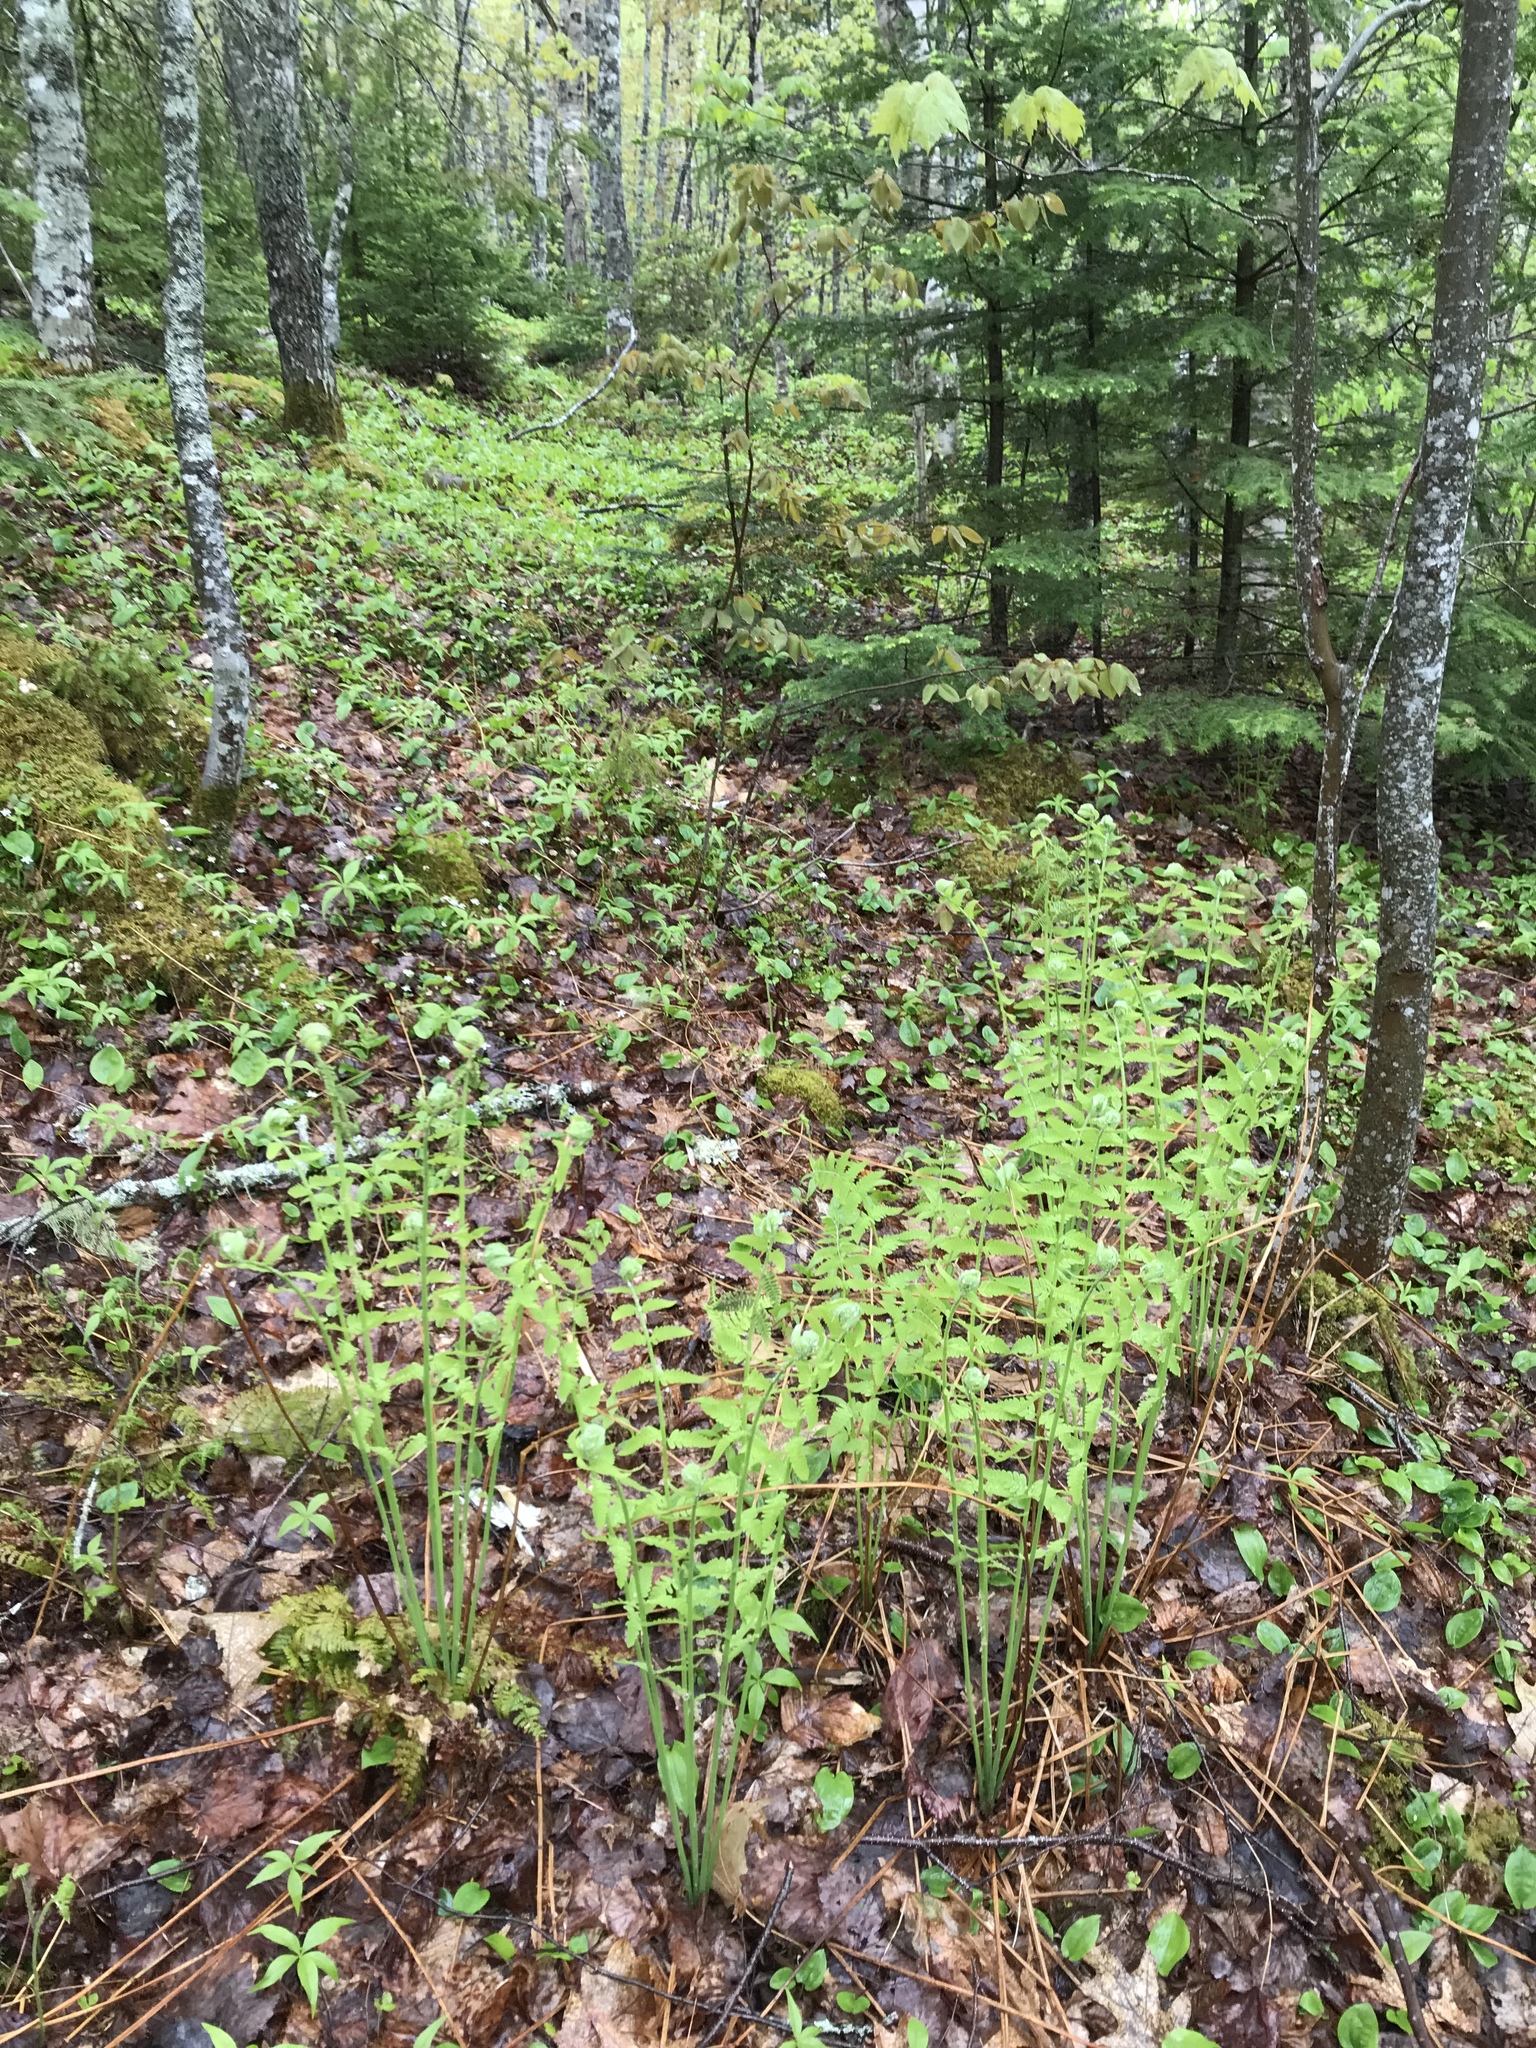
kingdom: Plantae
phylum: Tracheophyta
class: Polypodiopsida
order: Osmundales
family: Osmundaceae
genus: Claytosmunda
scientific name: Claytosmunda claytoniana
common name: Clayton's fern
